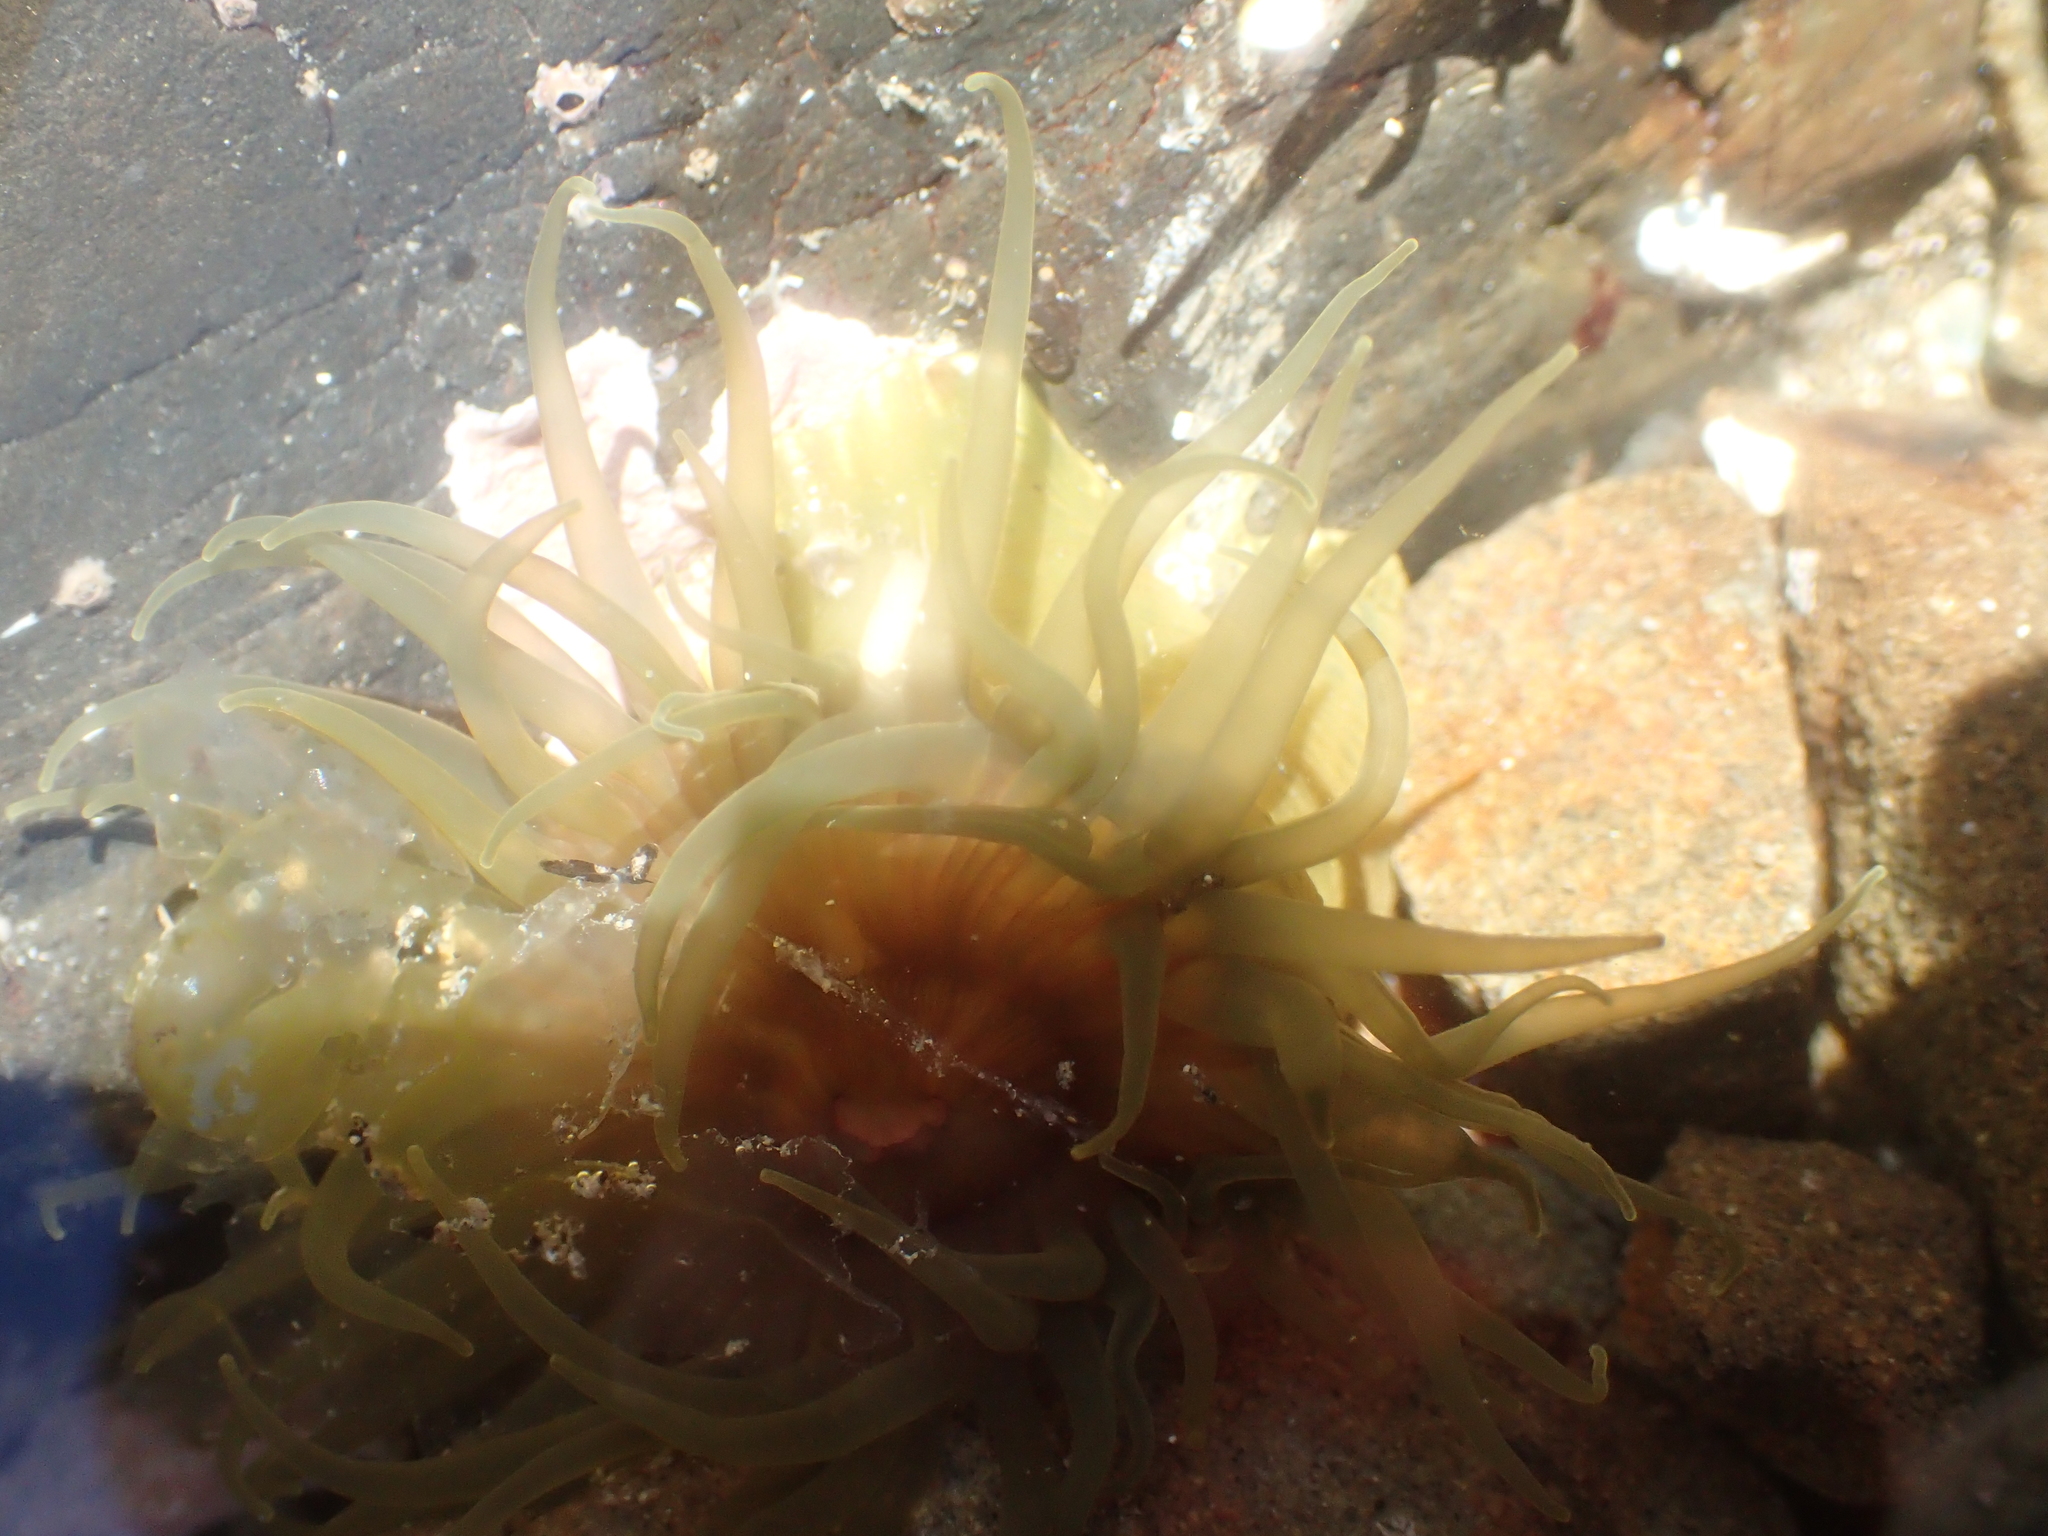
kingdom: Animalia
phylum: Cnidaria
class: Anthozoa
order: Actiniaria
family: Actiniidae
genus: Isactinia
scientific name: Isactinia olivacea
